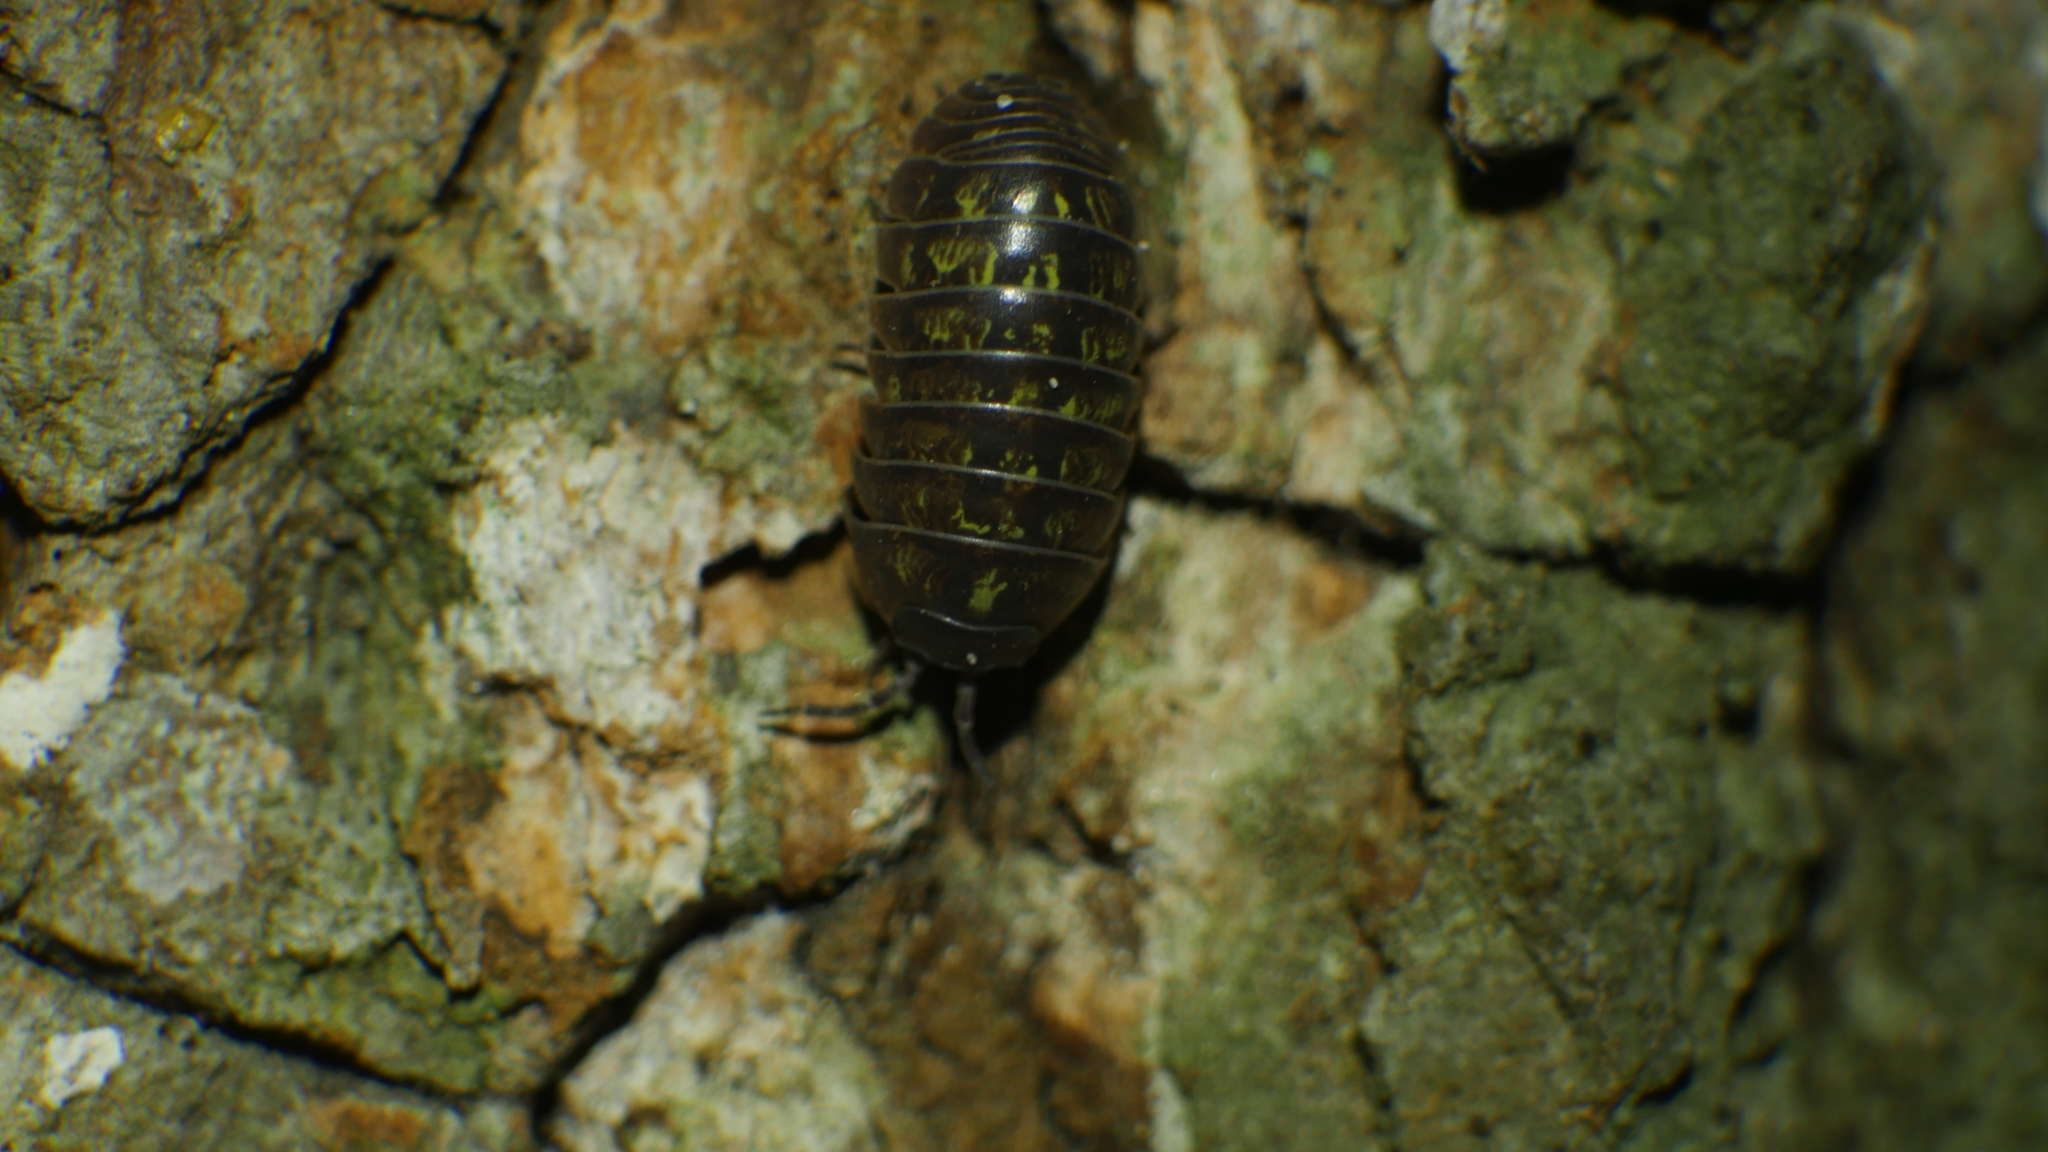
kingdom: Animalia
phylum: Arthropoda
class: Malacostraca
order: Isopoda
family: Armadillidiidae
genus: Armadillidium
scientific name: Armadillidium vulgare
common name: Common pill woodlouse
